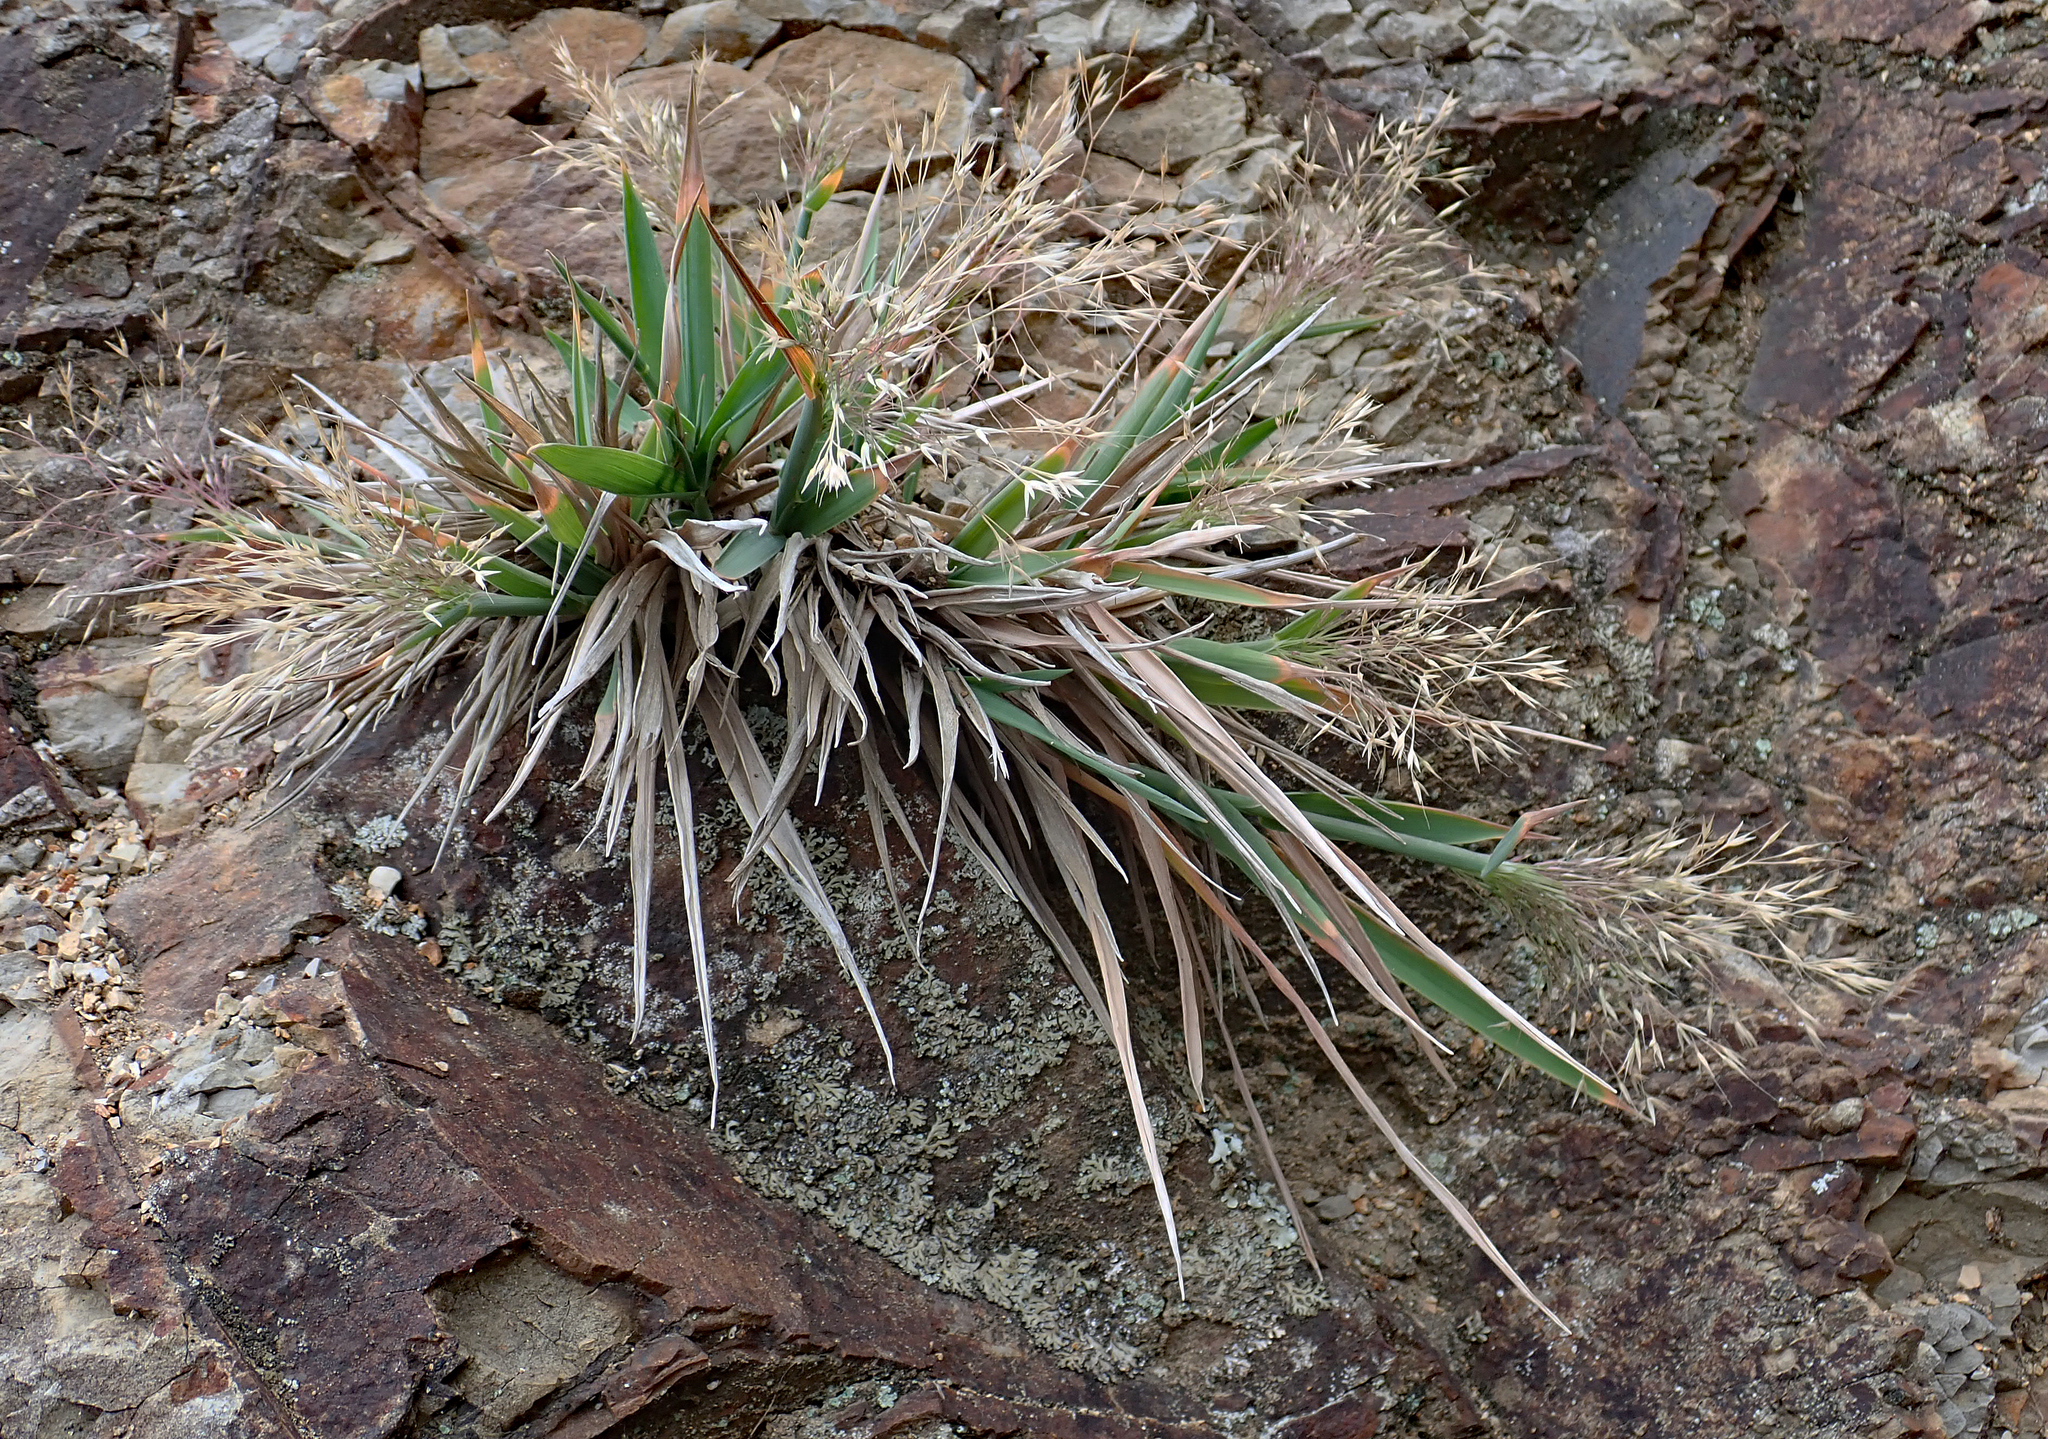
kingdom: Plantae
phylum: Tracheophyta
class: Liliopsida
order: Poales
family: Poaceae
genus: Lachnagrostis
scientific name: Lachnagrostis billardierei
